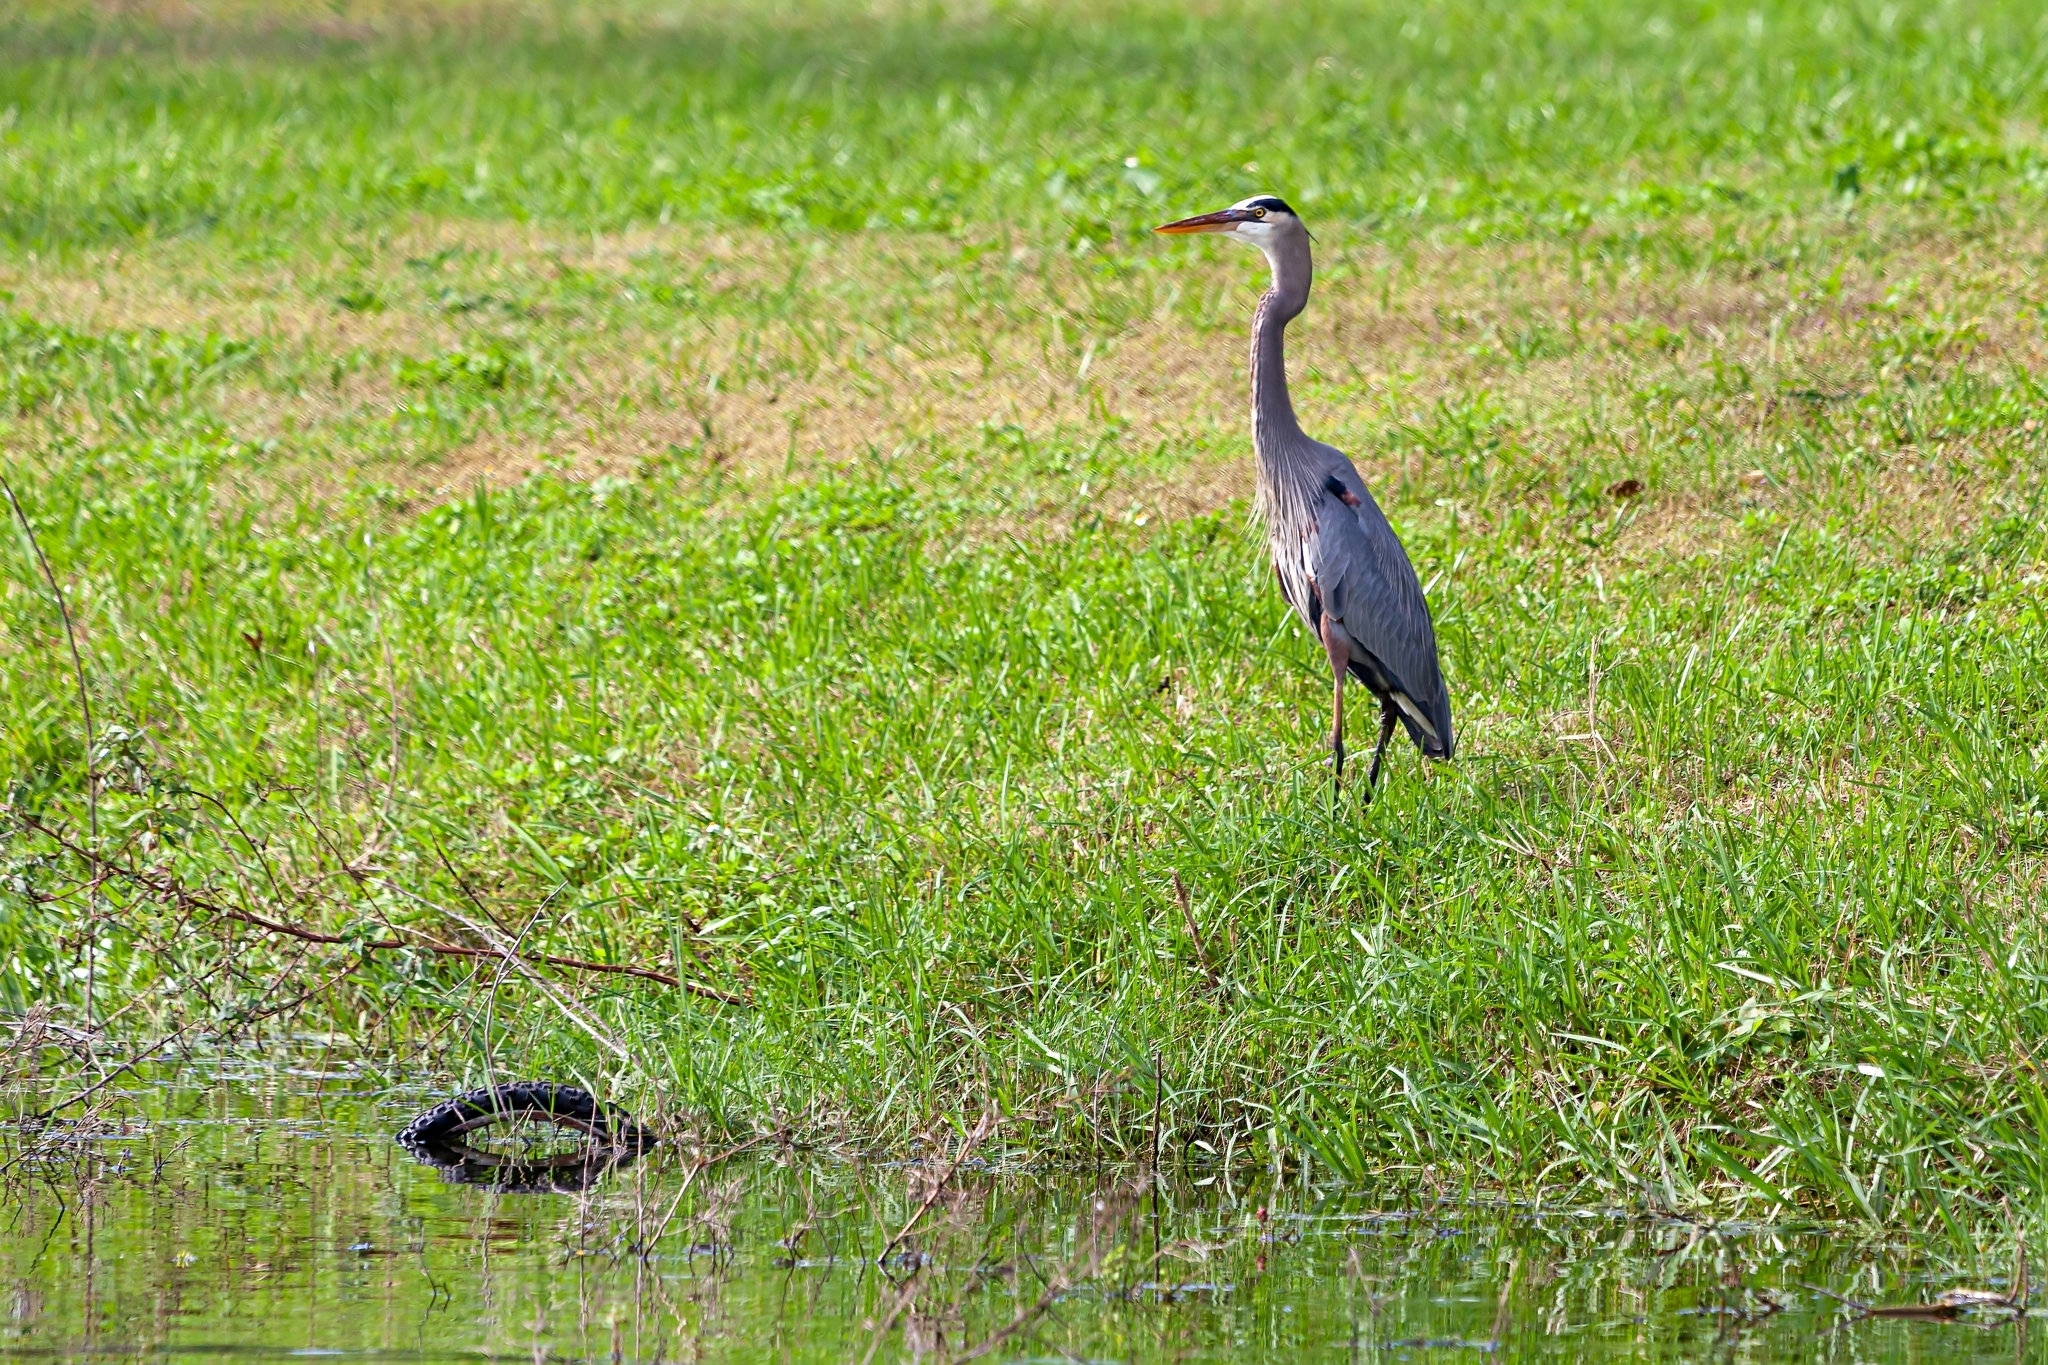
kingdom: Animalia
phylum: Chordata
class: Aves
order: Pelecaniformes
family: Ardeidae
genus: Ardea
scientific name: Ardea herodias
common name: Great blue heron
